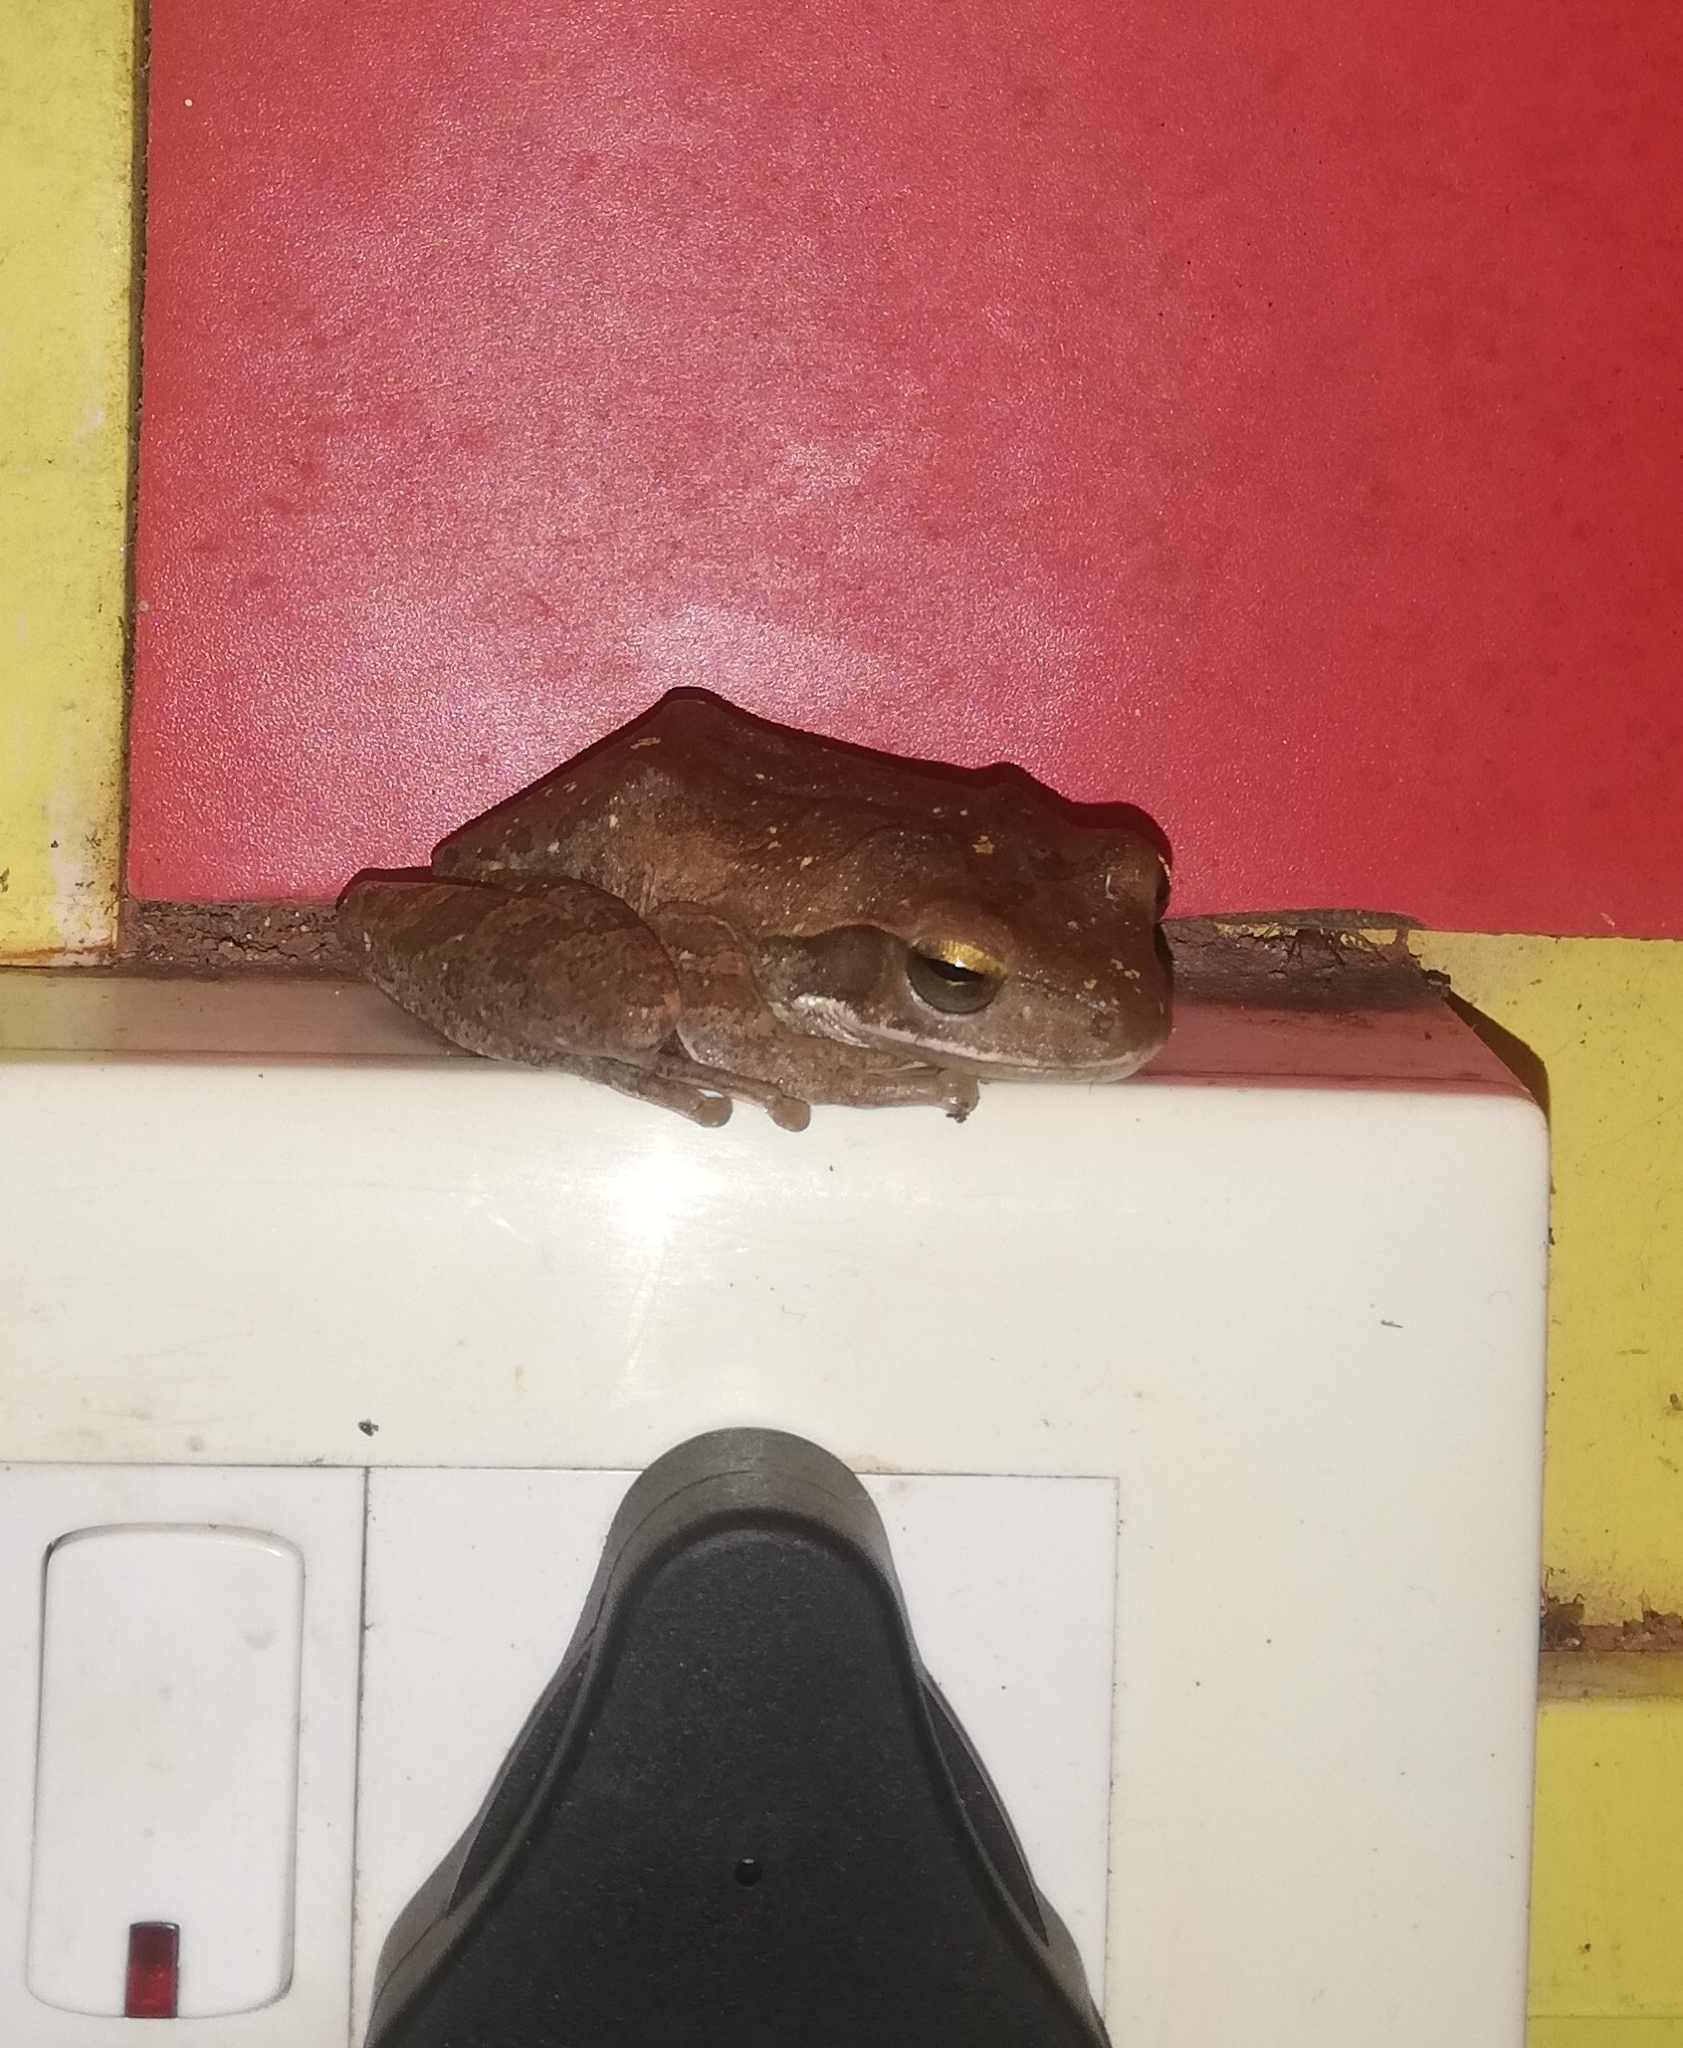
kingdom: Animalia
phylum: Chordata
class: Amphibia
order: Anura
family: Rhacophoridae
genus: Polypedates
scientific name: Polypedates maculatus
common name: Himalayan tree frog
